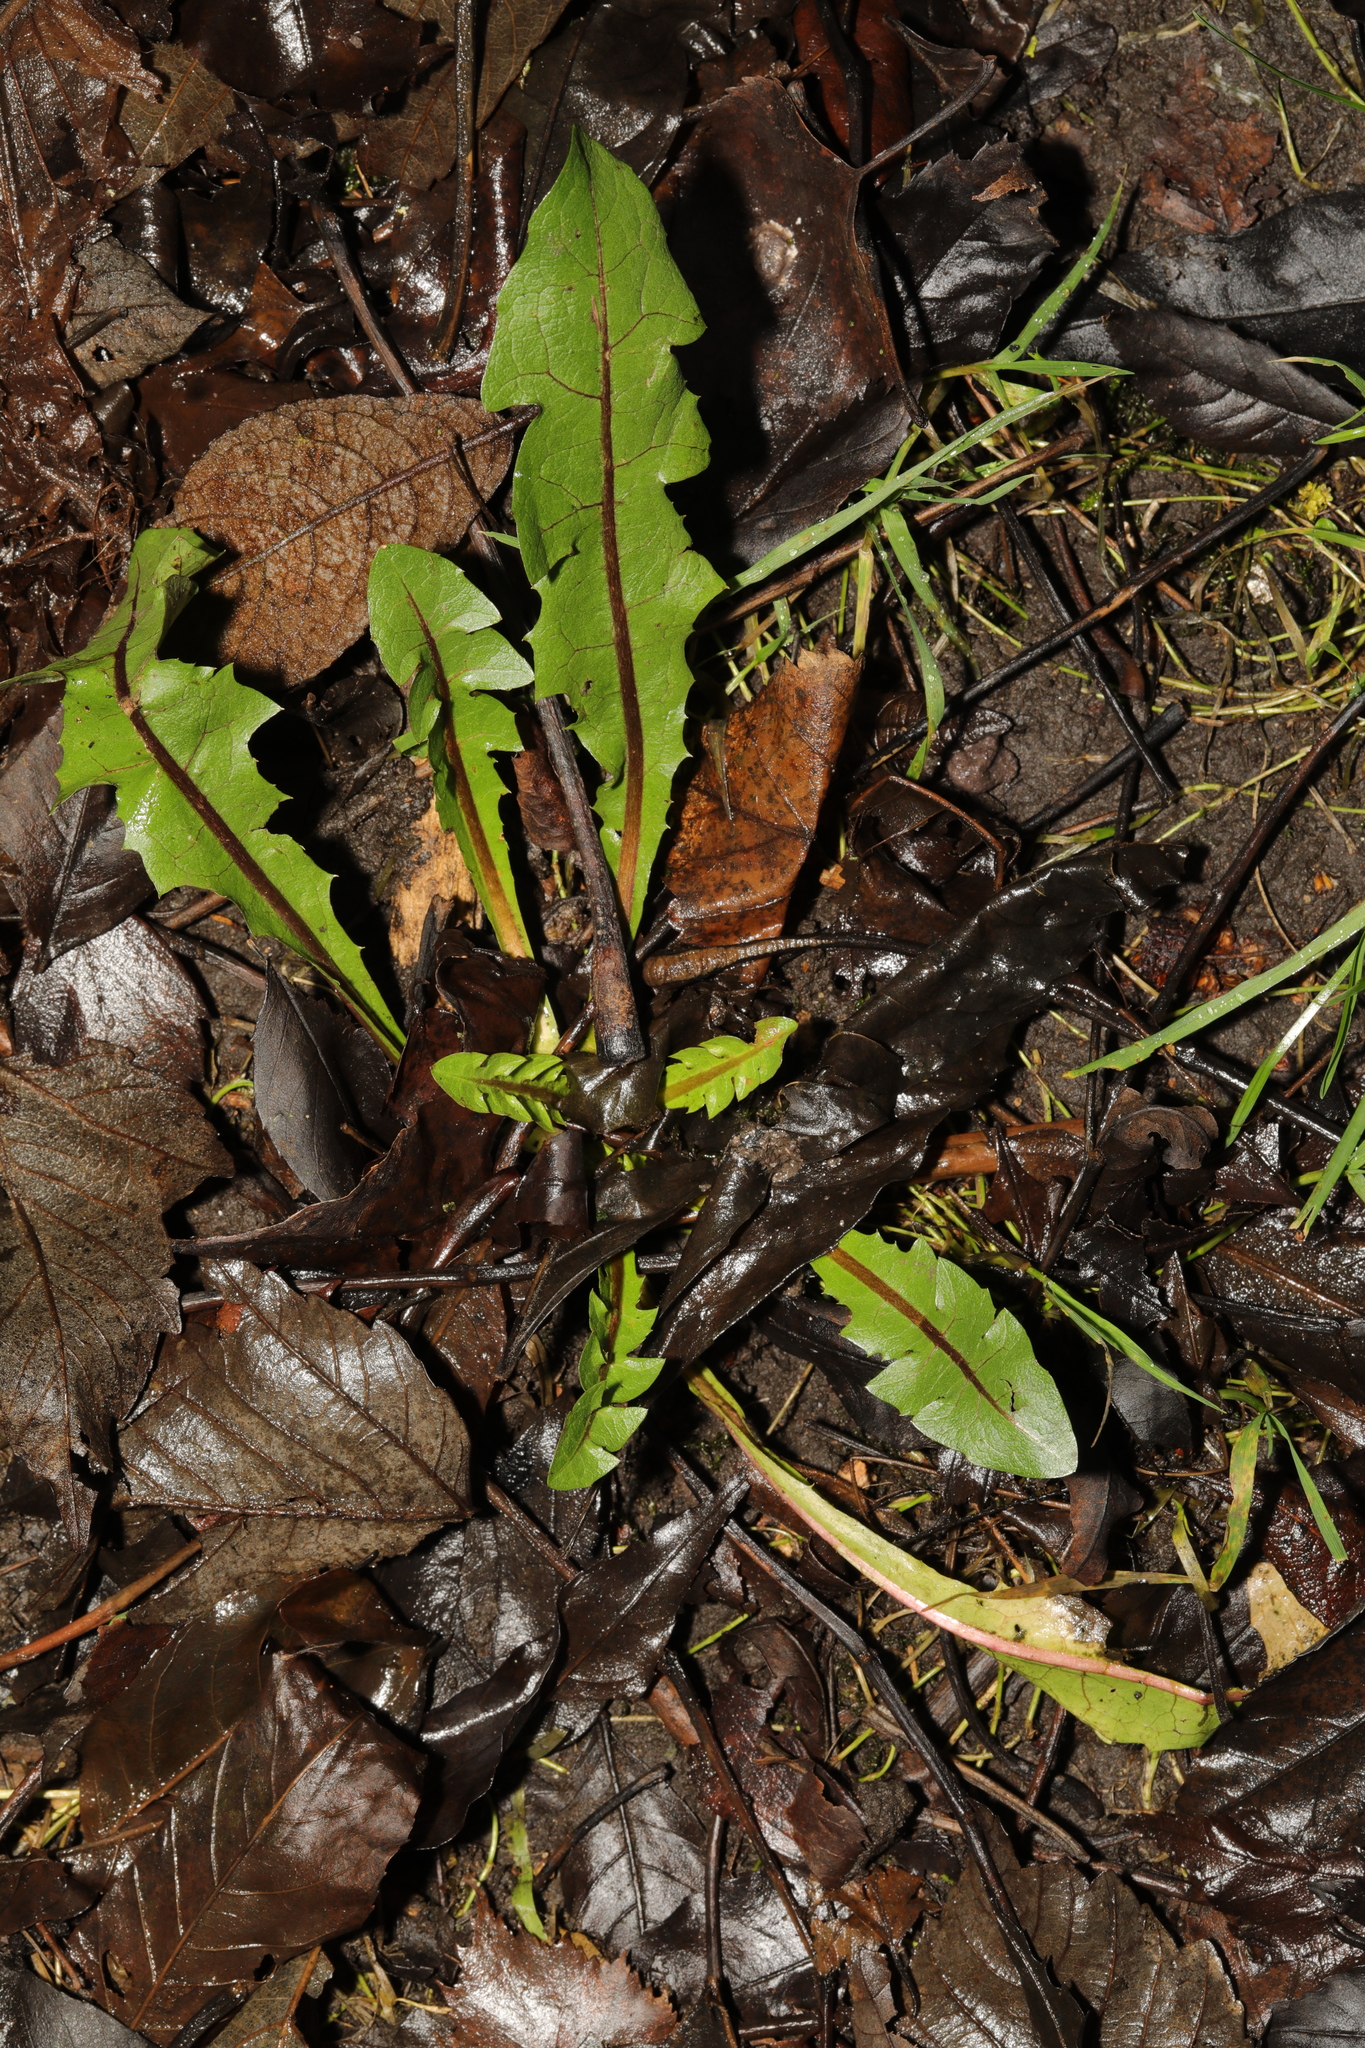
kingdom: Plantae
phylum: Tracheophyta
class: Magnoliopsida
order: Asterales
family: Asteraceae
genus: Taraxacum
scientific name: Taraxacum officinale
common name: Common dandelion
